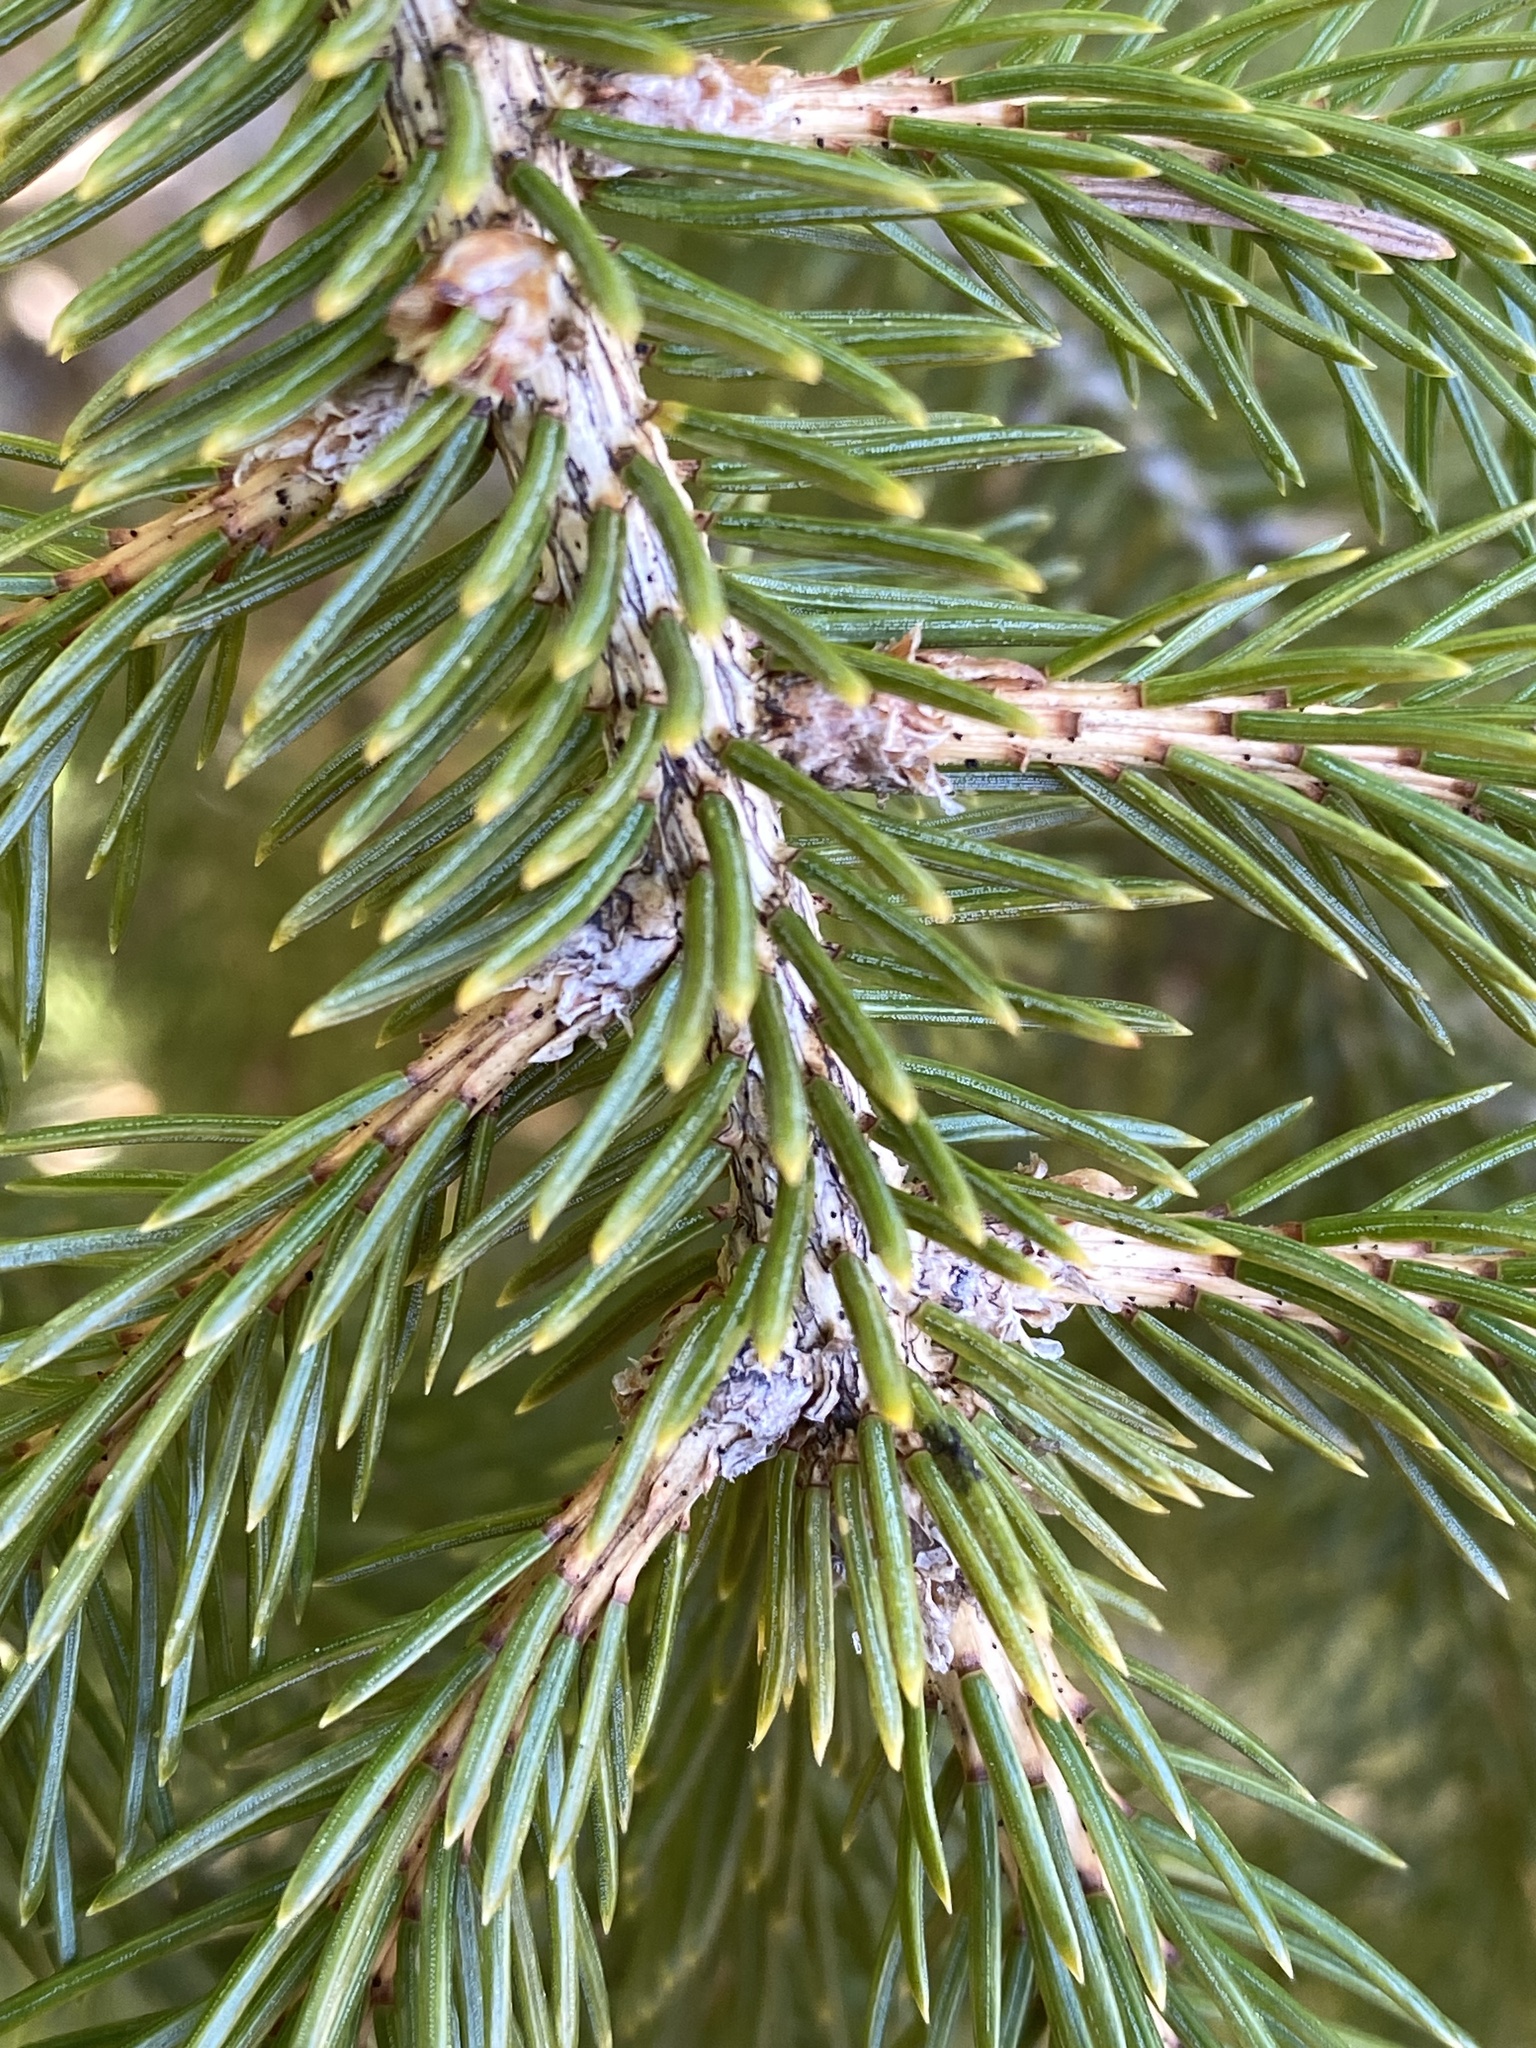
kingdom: Plantae
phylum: Tracheophyta
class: Pinopsida
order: Pinales
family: Pinaceae
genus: Picea
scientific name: Picea glauca
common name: White spruce
